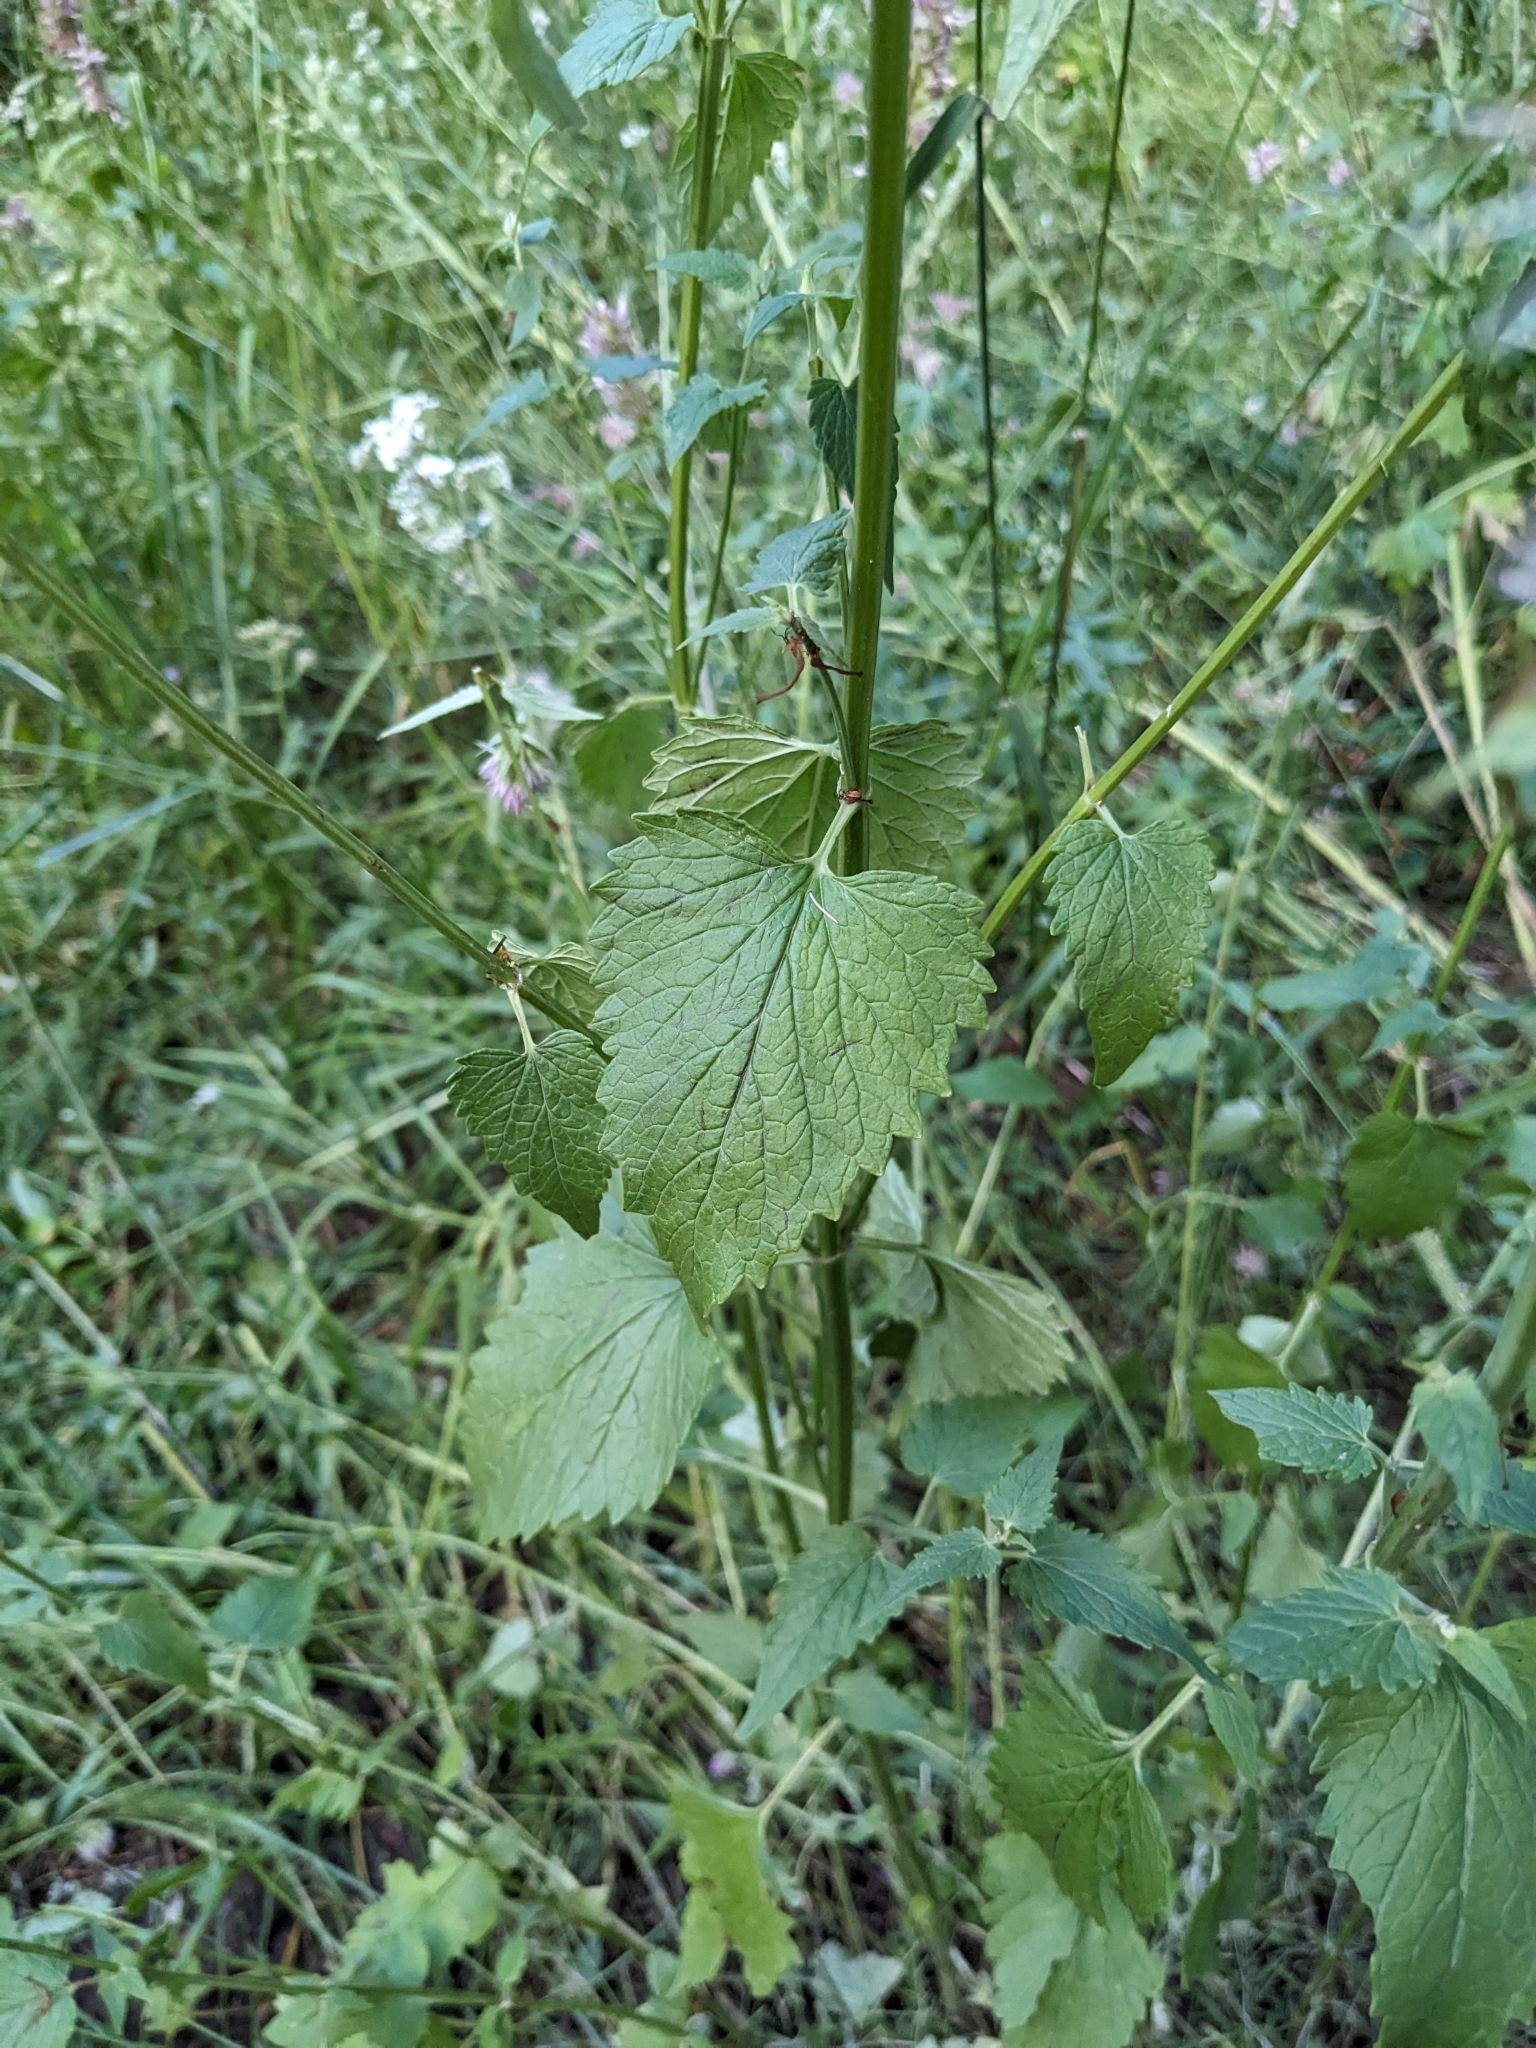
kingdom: Plantae
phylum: Tracheophyta
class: Magnoliopsida
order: Lamiales
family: Lamiaceae
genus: Agastache
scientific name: Agastache urticifolia
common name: Horsemint giant hyssop
